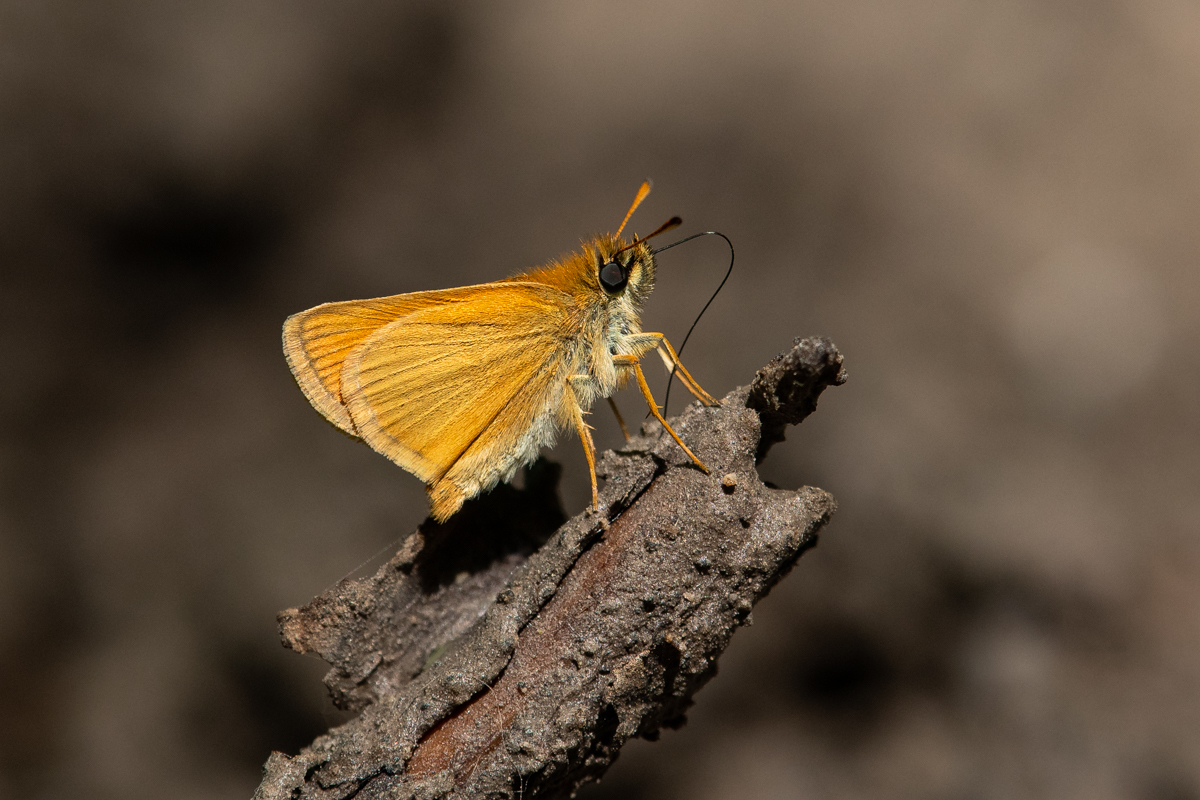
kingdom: Animalia
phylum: Arthropoda
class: Insecta
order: Lepidoptera
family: Hesperiidae
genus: Thymelicus
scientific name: Thymelicus lineola
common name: Essex skipper
